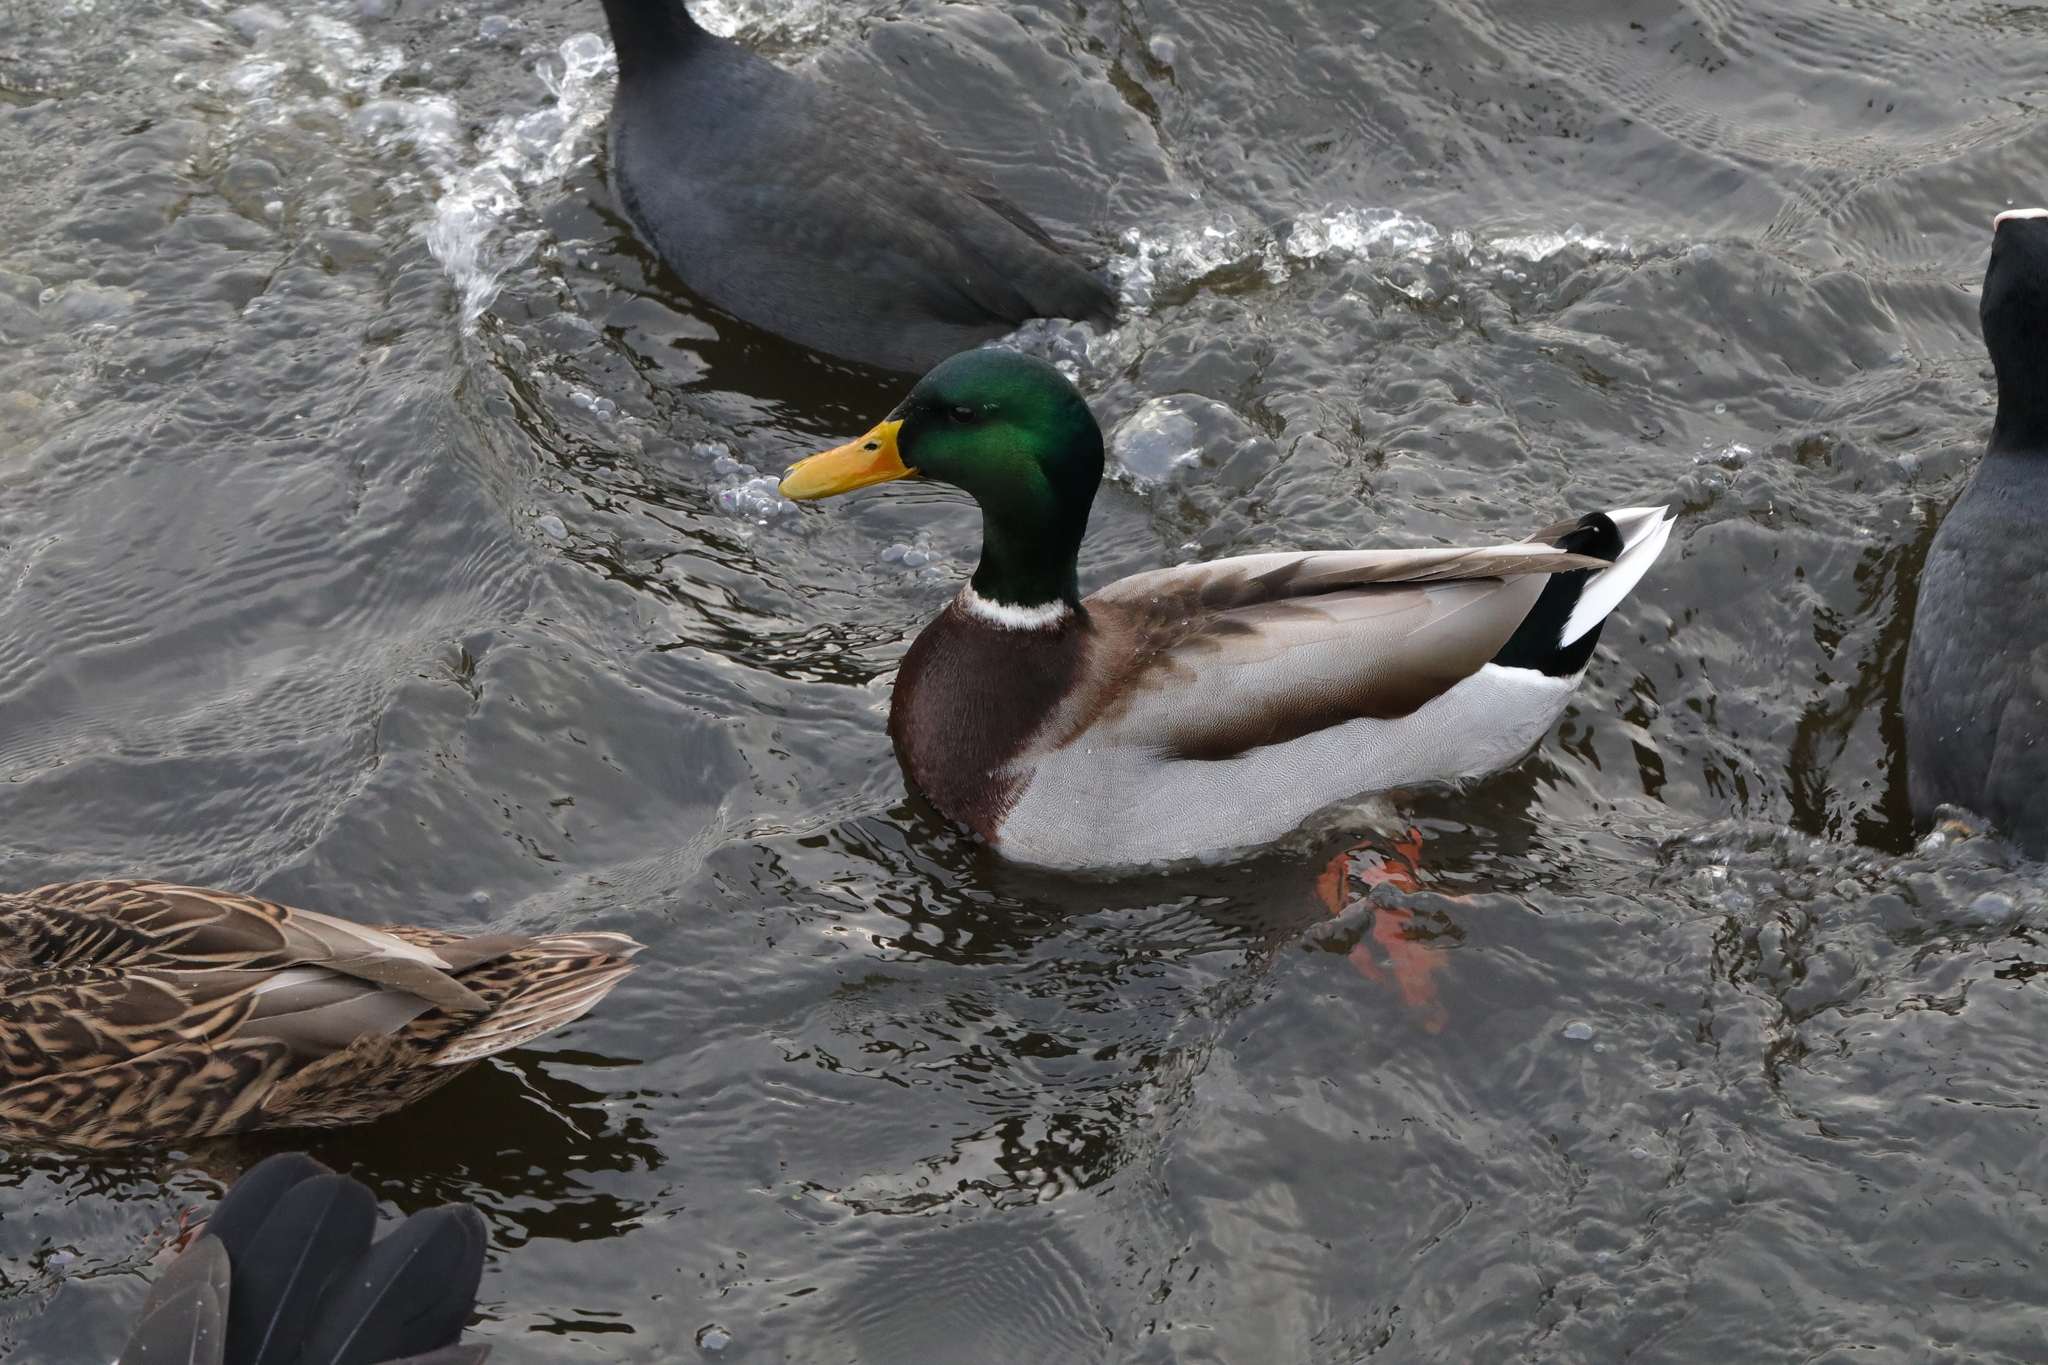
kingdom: Animalia
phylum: Chordata
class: Aves
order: Anseriformes
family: Anatidae
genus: Anas
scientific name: Anas platyrhynchos
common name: Mallard
